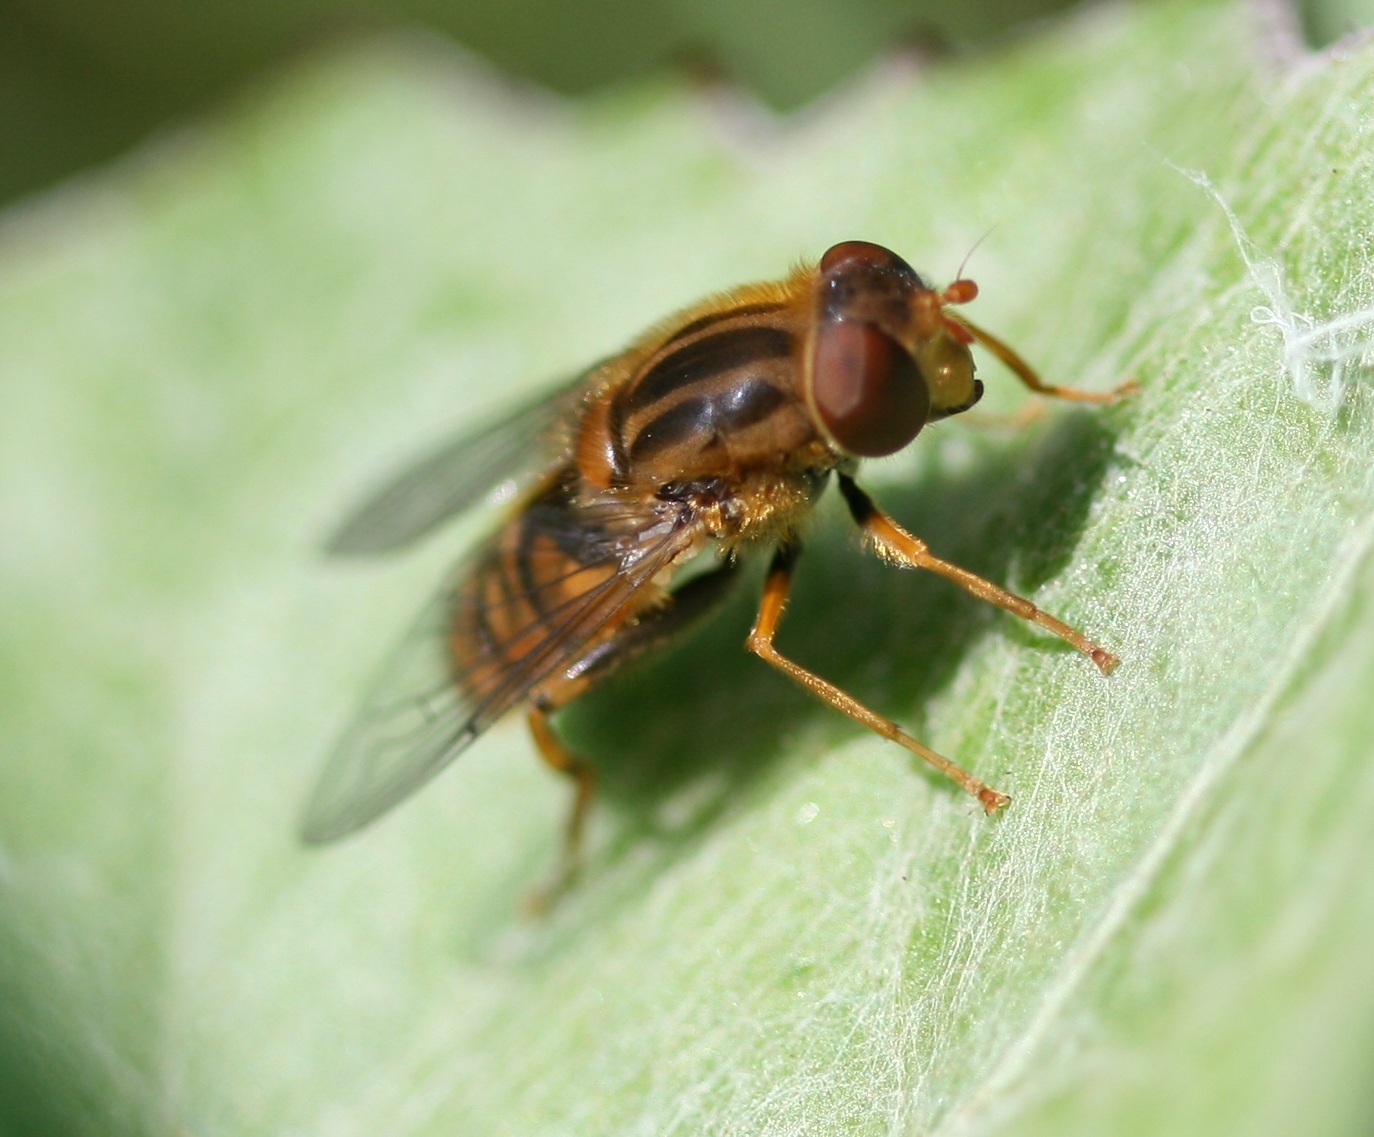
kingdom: Animalia
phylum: Arthropoda
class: Insecta
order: Diptera
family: Syrphidae
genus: Parhelophilus
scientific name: Parhelophilus
